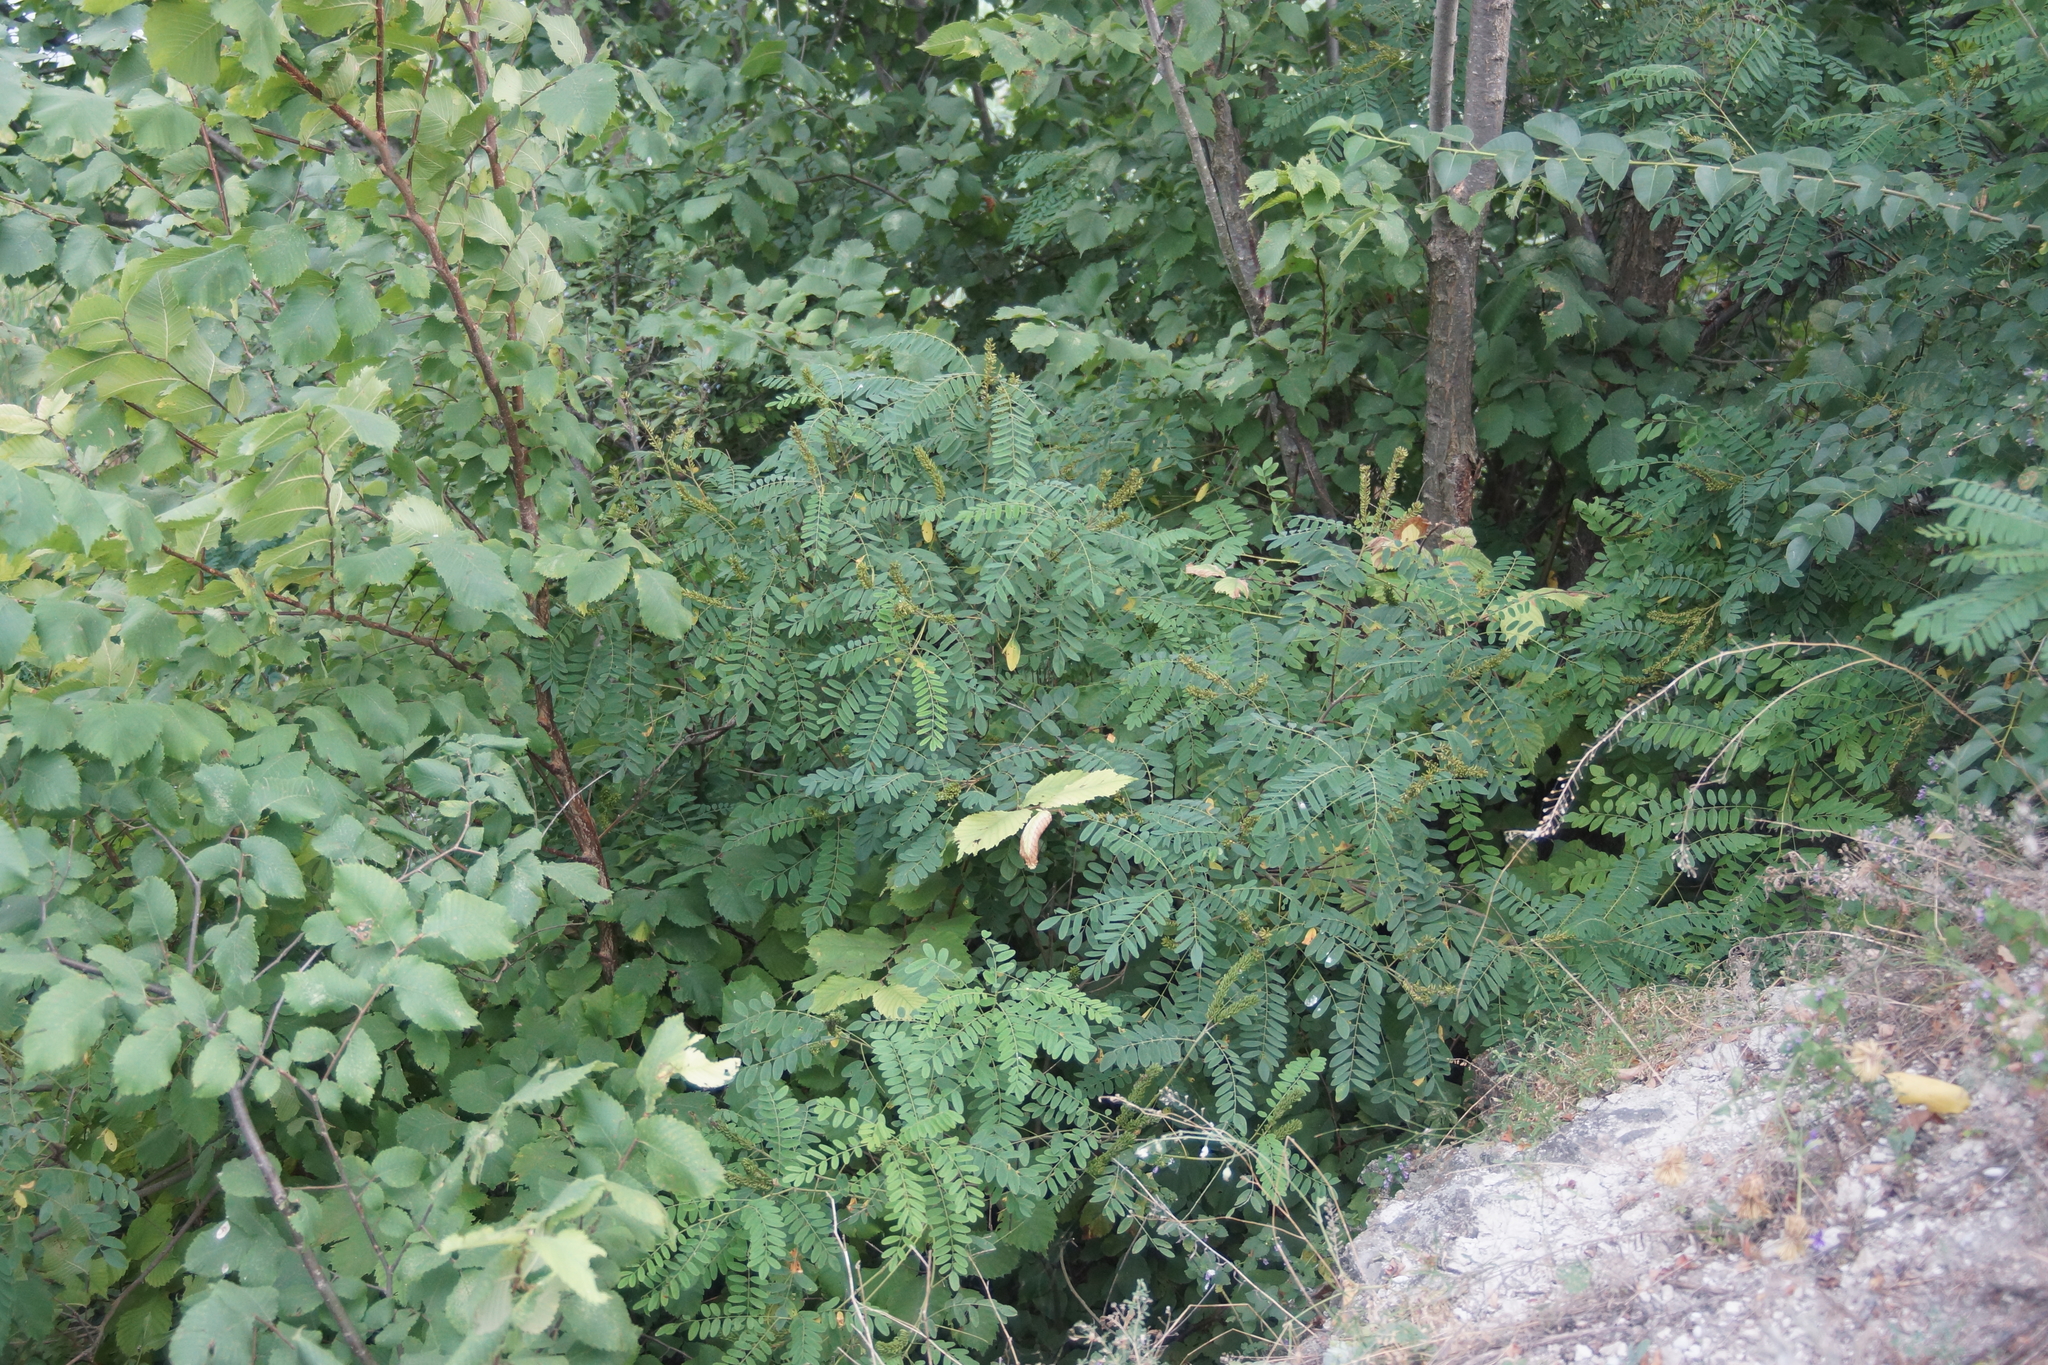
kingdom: Plantae
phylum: Tracheophyta
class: Magnoliopsida
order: Fabales
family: Fabaceae
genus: Amorpha
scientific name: Amorpha fruticosa
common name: False indigo
